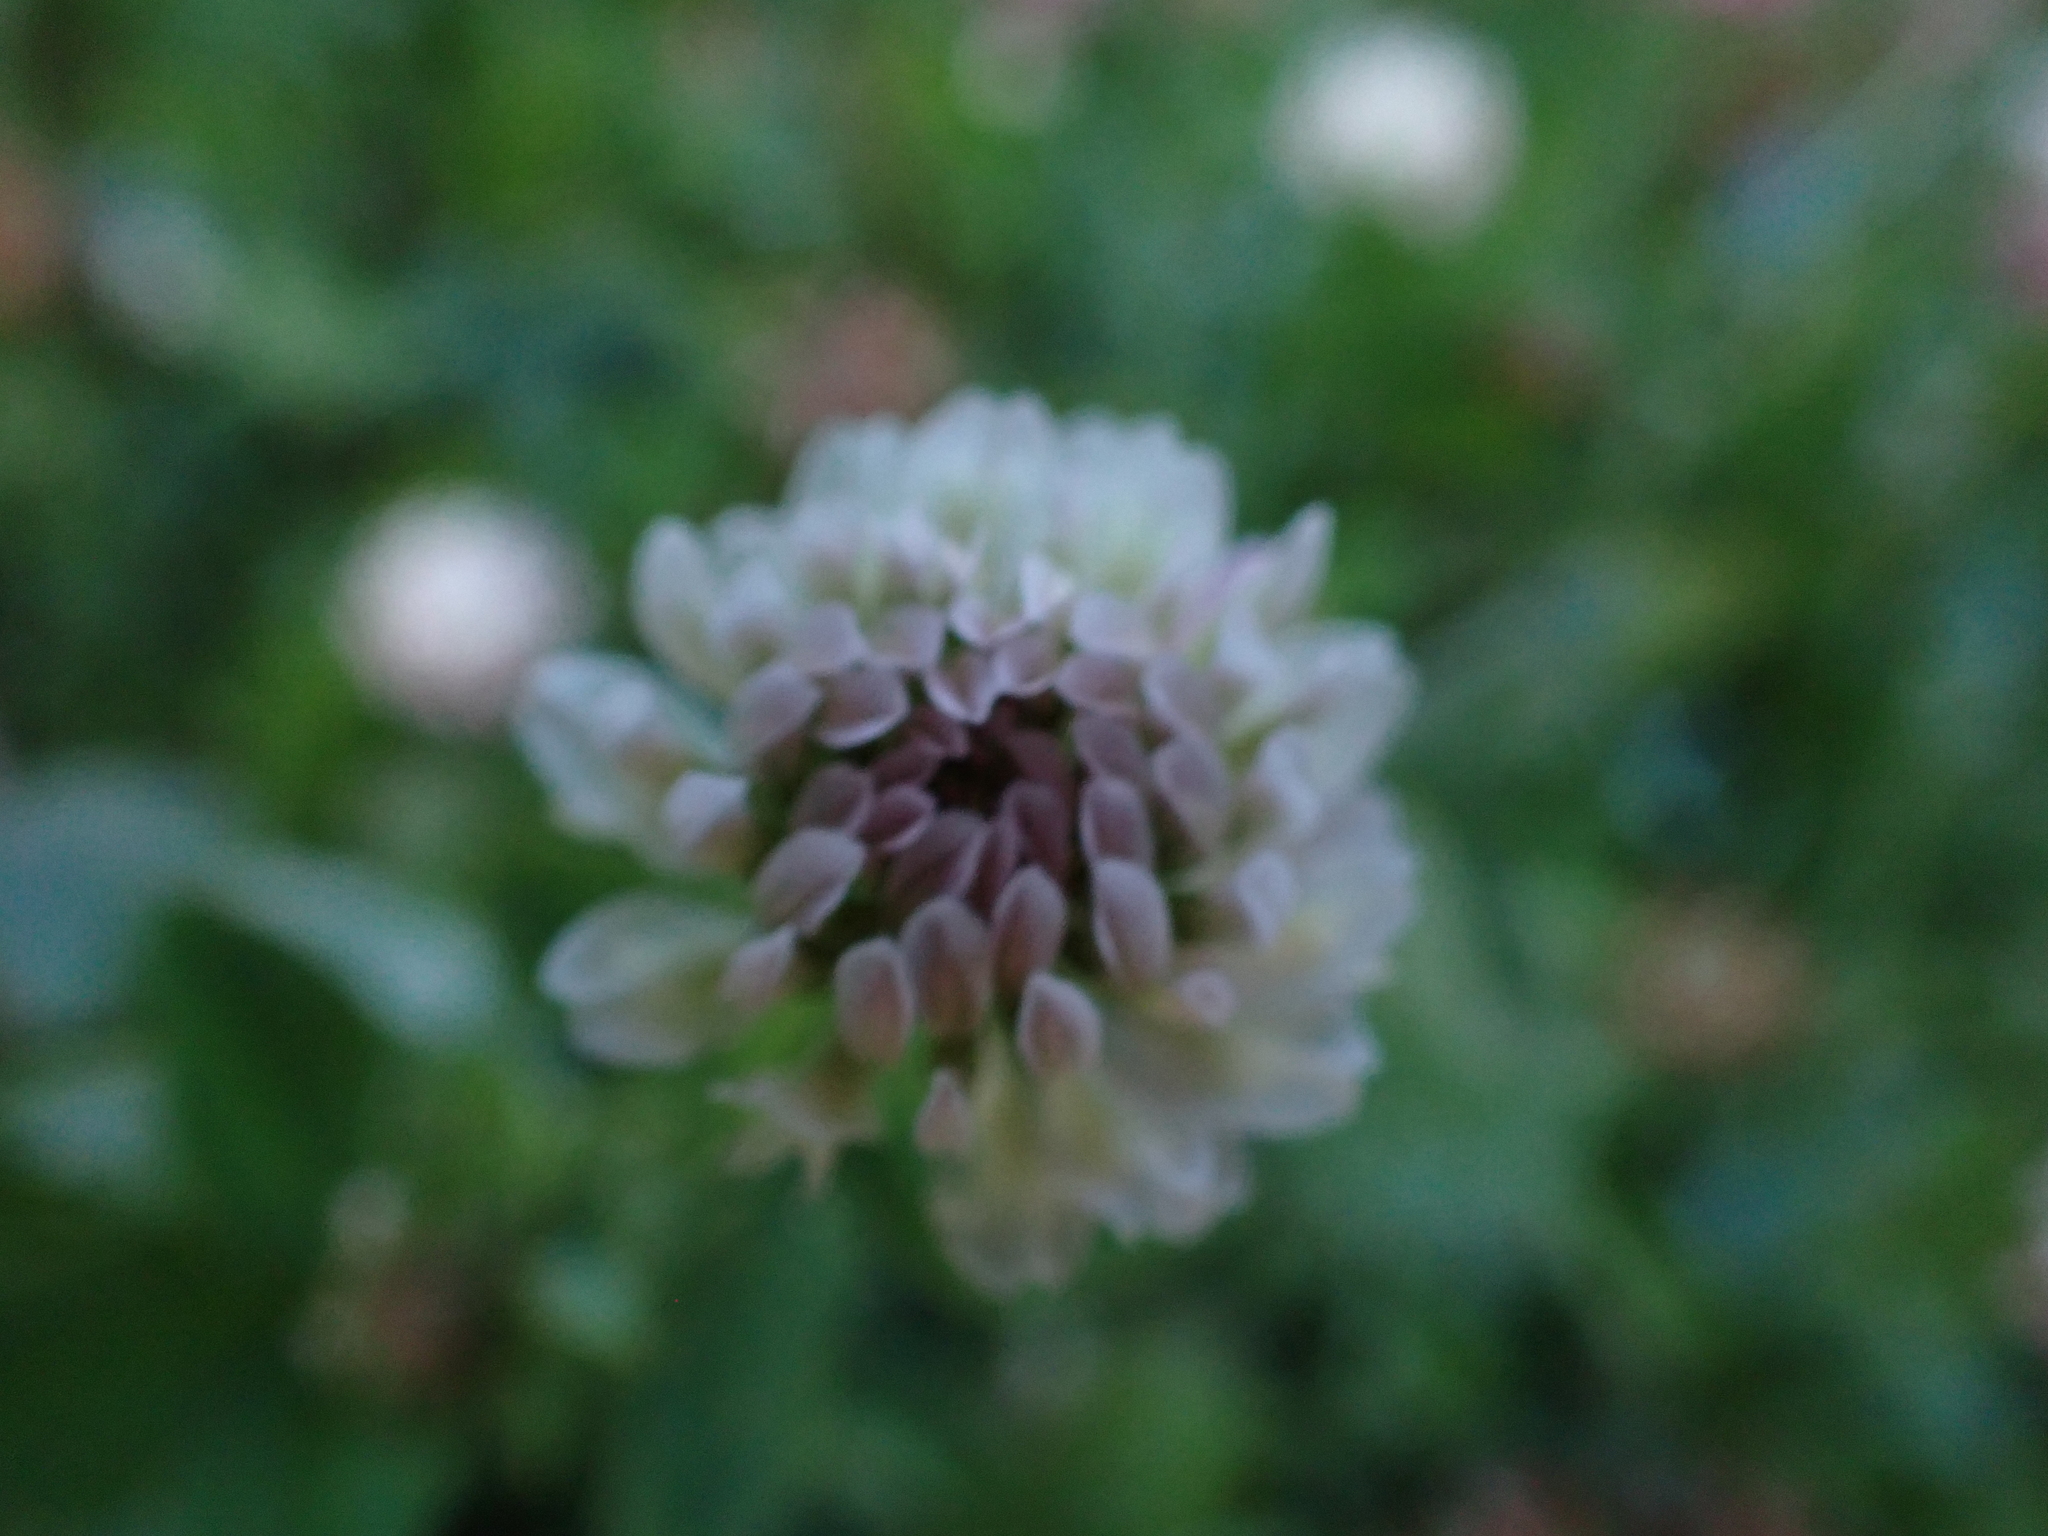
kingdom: Plantae
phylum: Tracheophyta
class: Magnoliopsida
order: Fabales
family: Fabaceae
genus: Trifolium
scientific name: Trifolium hybridum
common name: Alsike clover
